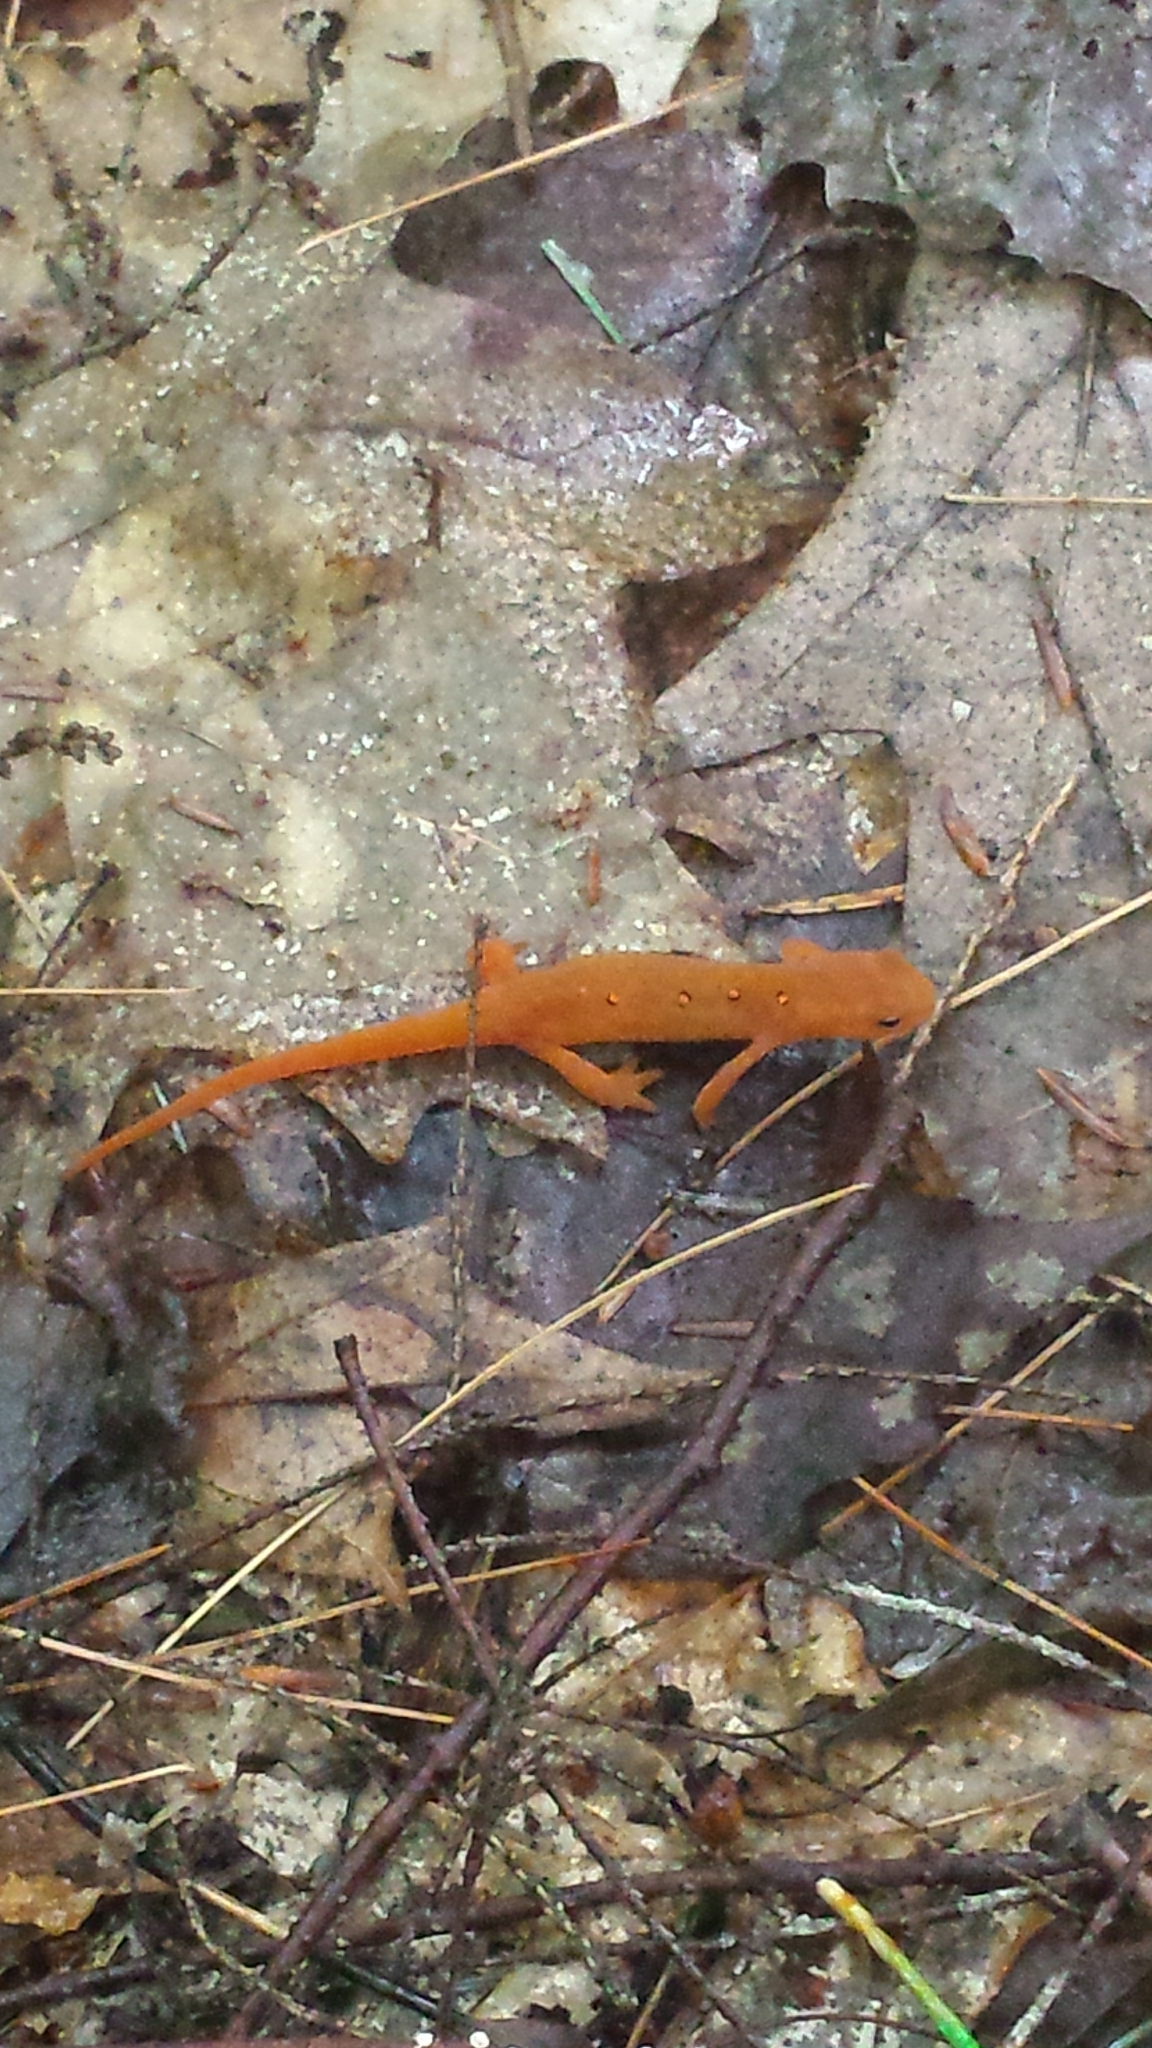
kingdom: Animalia
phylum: Chordata
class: Amphibia
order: Caudata
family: Salamandridae
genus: Notophthalmus
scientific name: Notophthalmus viridescens
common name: Eastern newt
